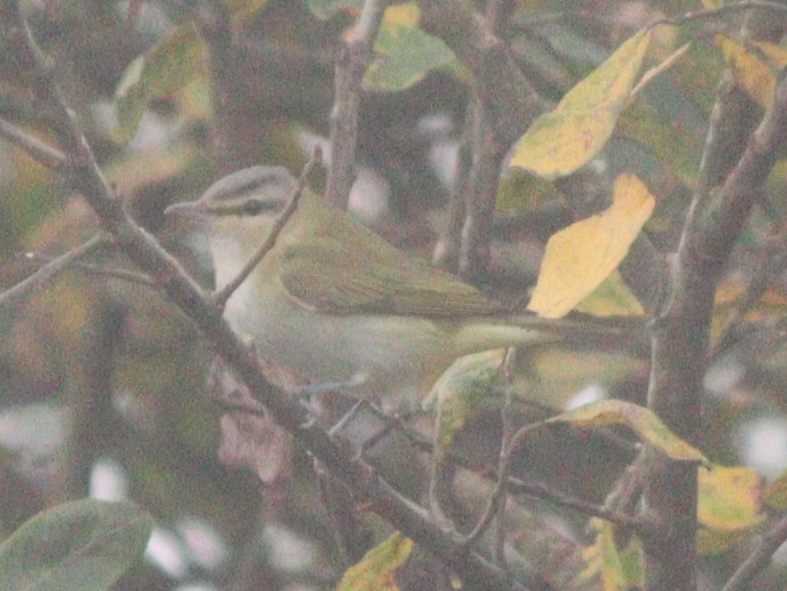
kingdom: Animalia
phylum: Chordata
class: Aves
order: Passeriformes
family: Vireonidae
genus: Vireo
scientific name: Vireo olivaceus
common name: Red-eyed vireo
